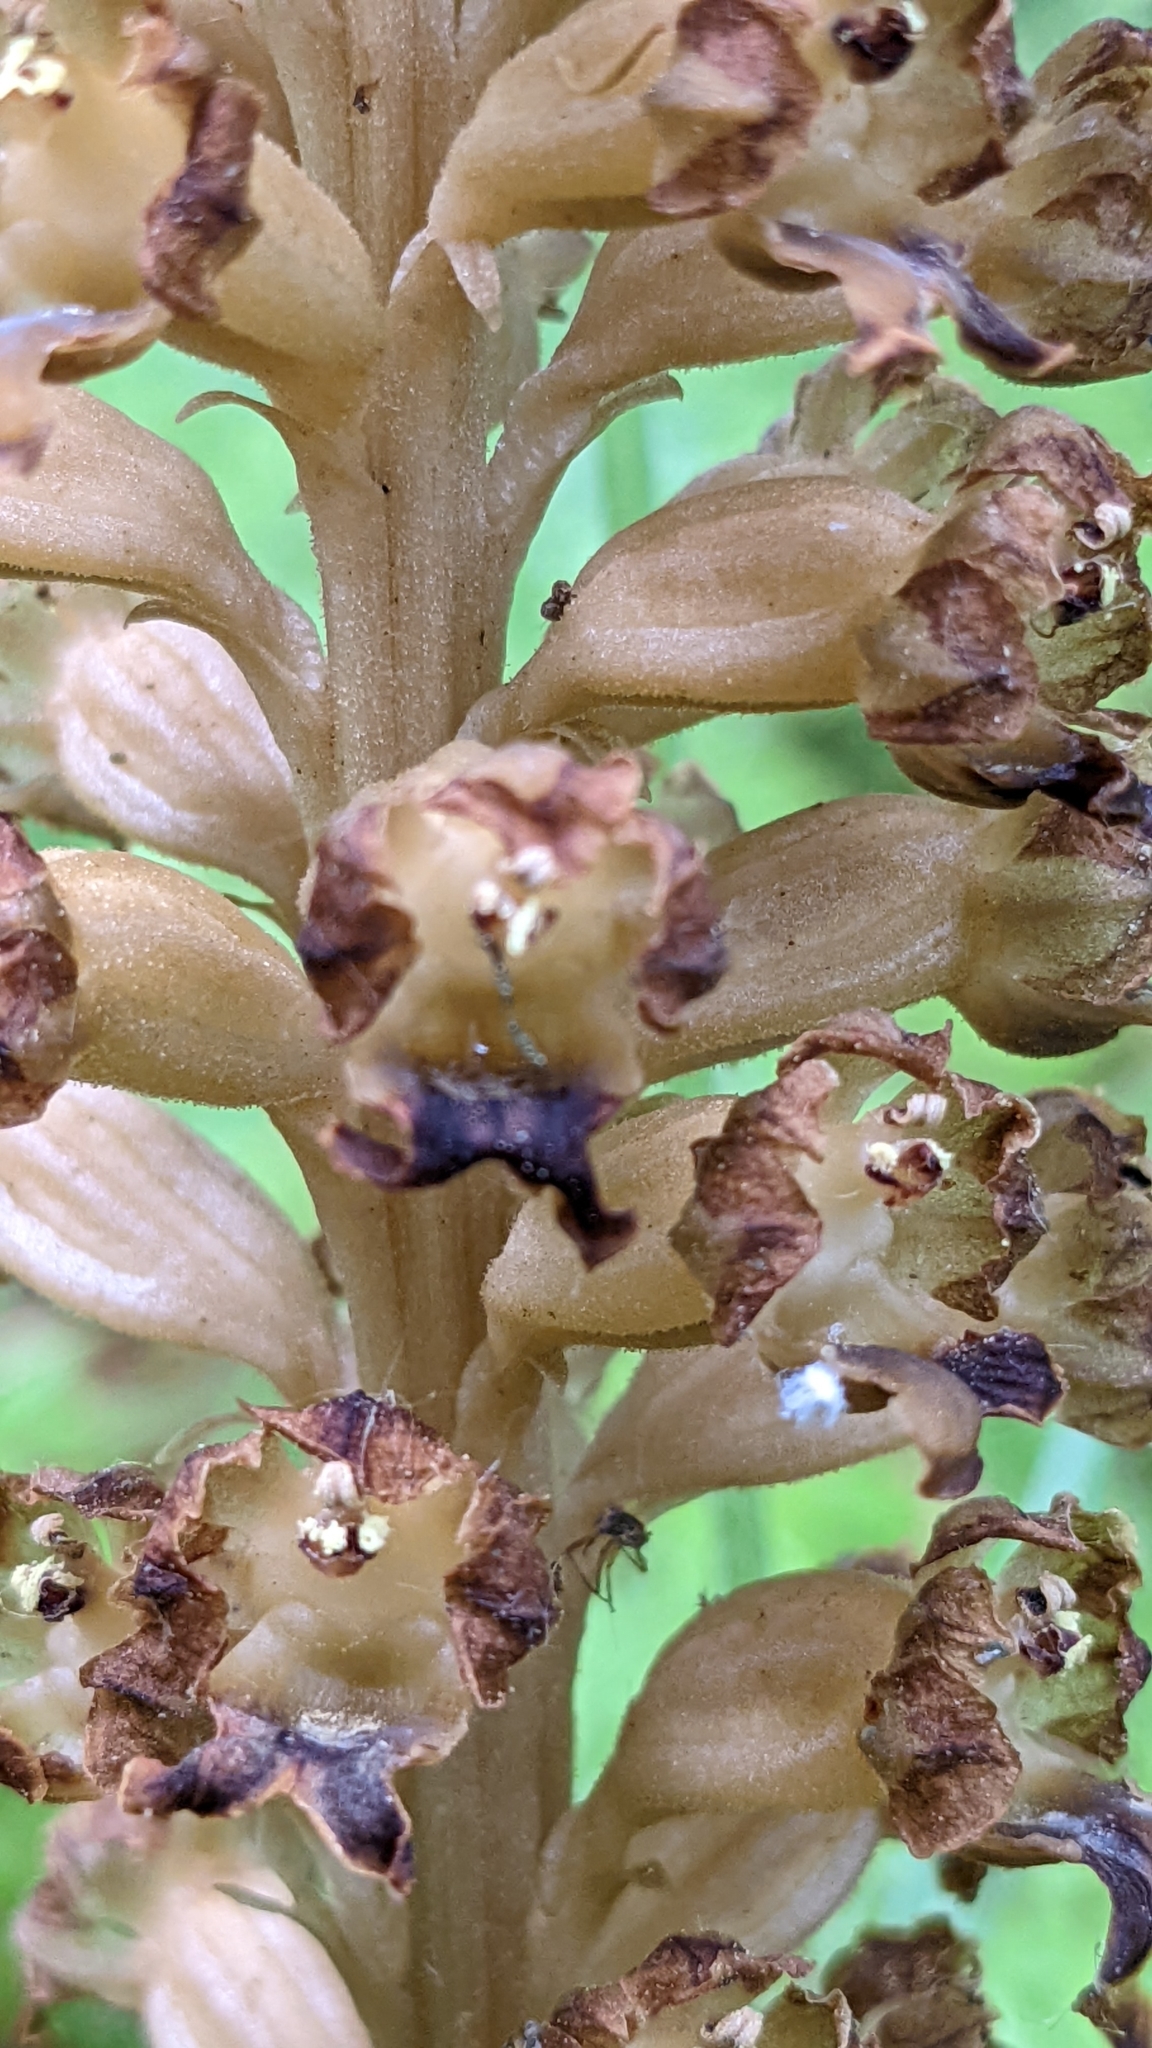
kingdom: Plantae
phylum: Tracheophyta
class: Liliopsida
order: Asparagales
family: Orchidaceae
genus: Neottia
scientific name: Neottia nidus-avis
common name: Bird's-nest orchid
